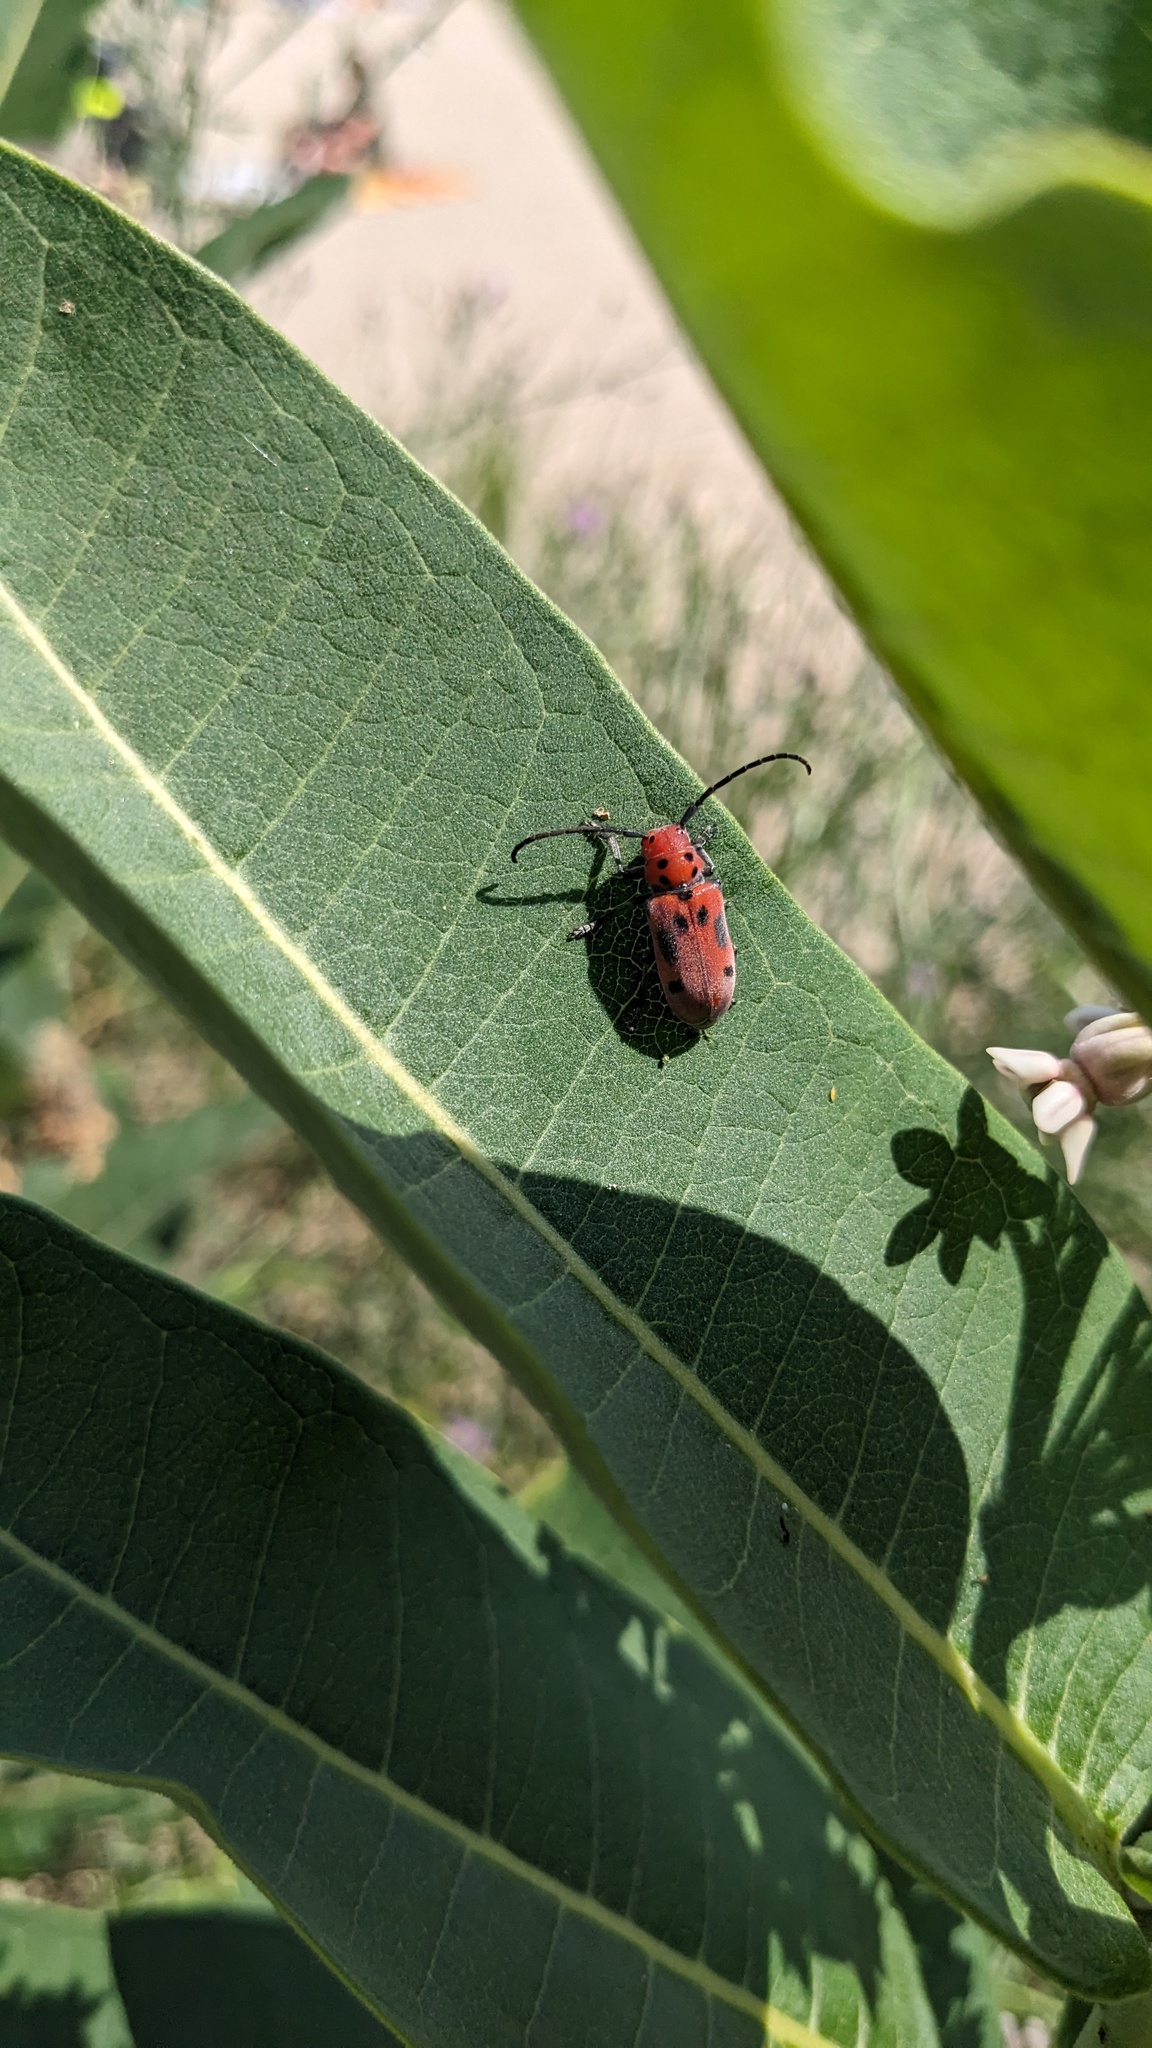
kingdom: Animalia
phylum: Arthropoda
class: Insecta
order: Coleoptera
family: Cerambycidae
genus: Tetraopes
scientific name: Tetraopes tetrophthalmus
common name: Red milkweed beetle
